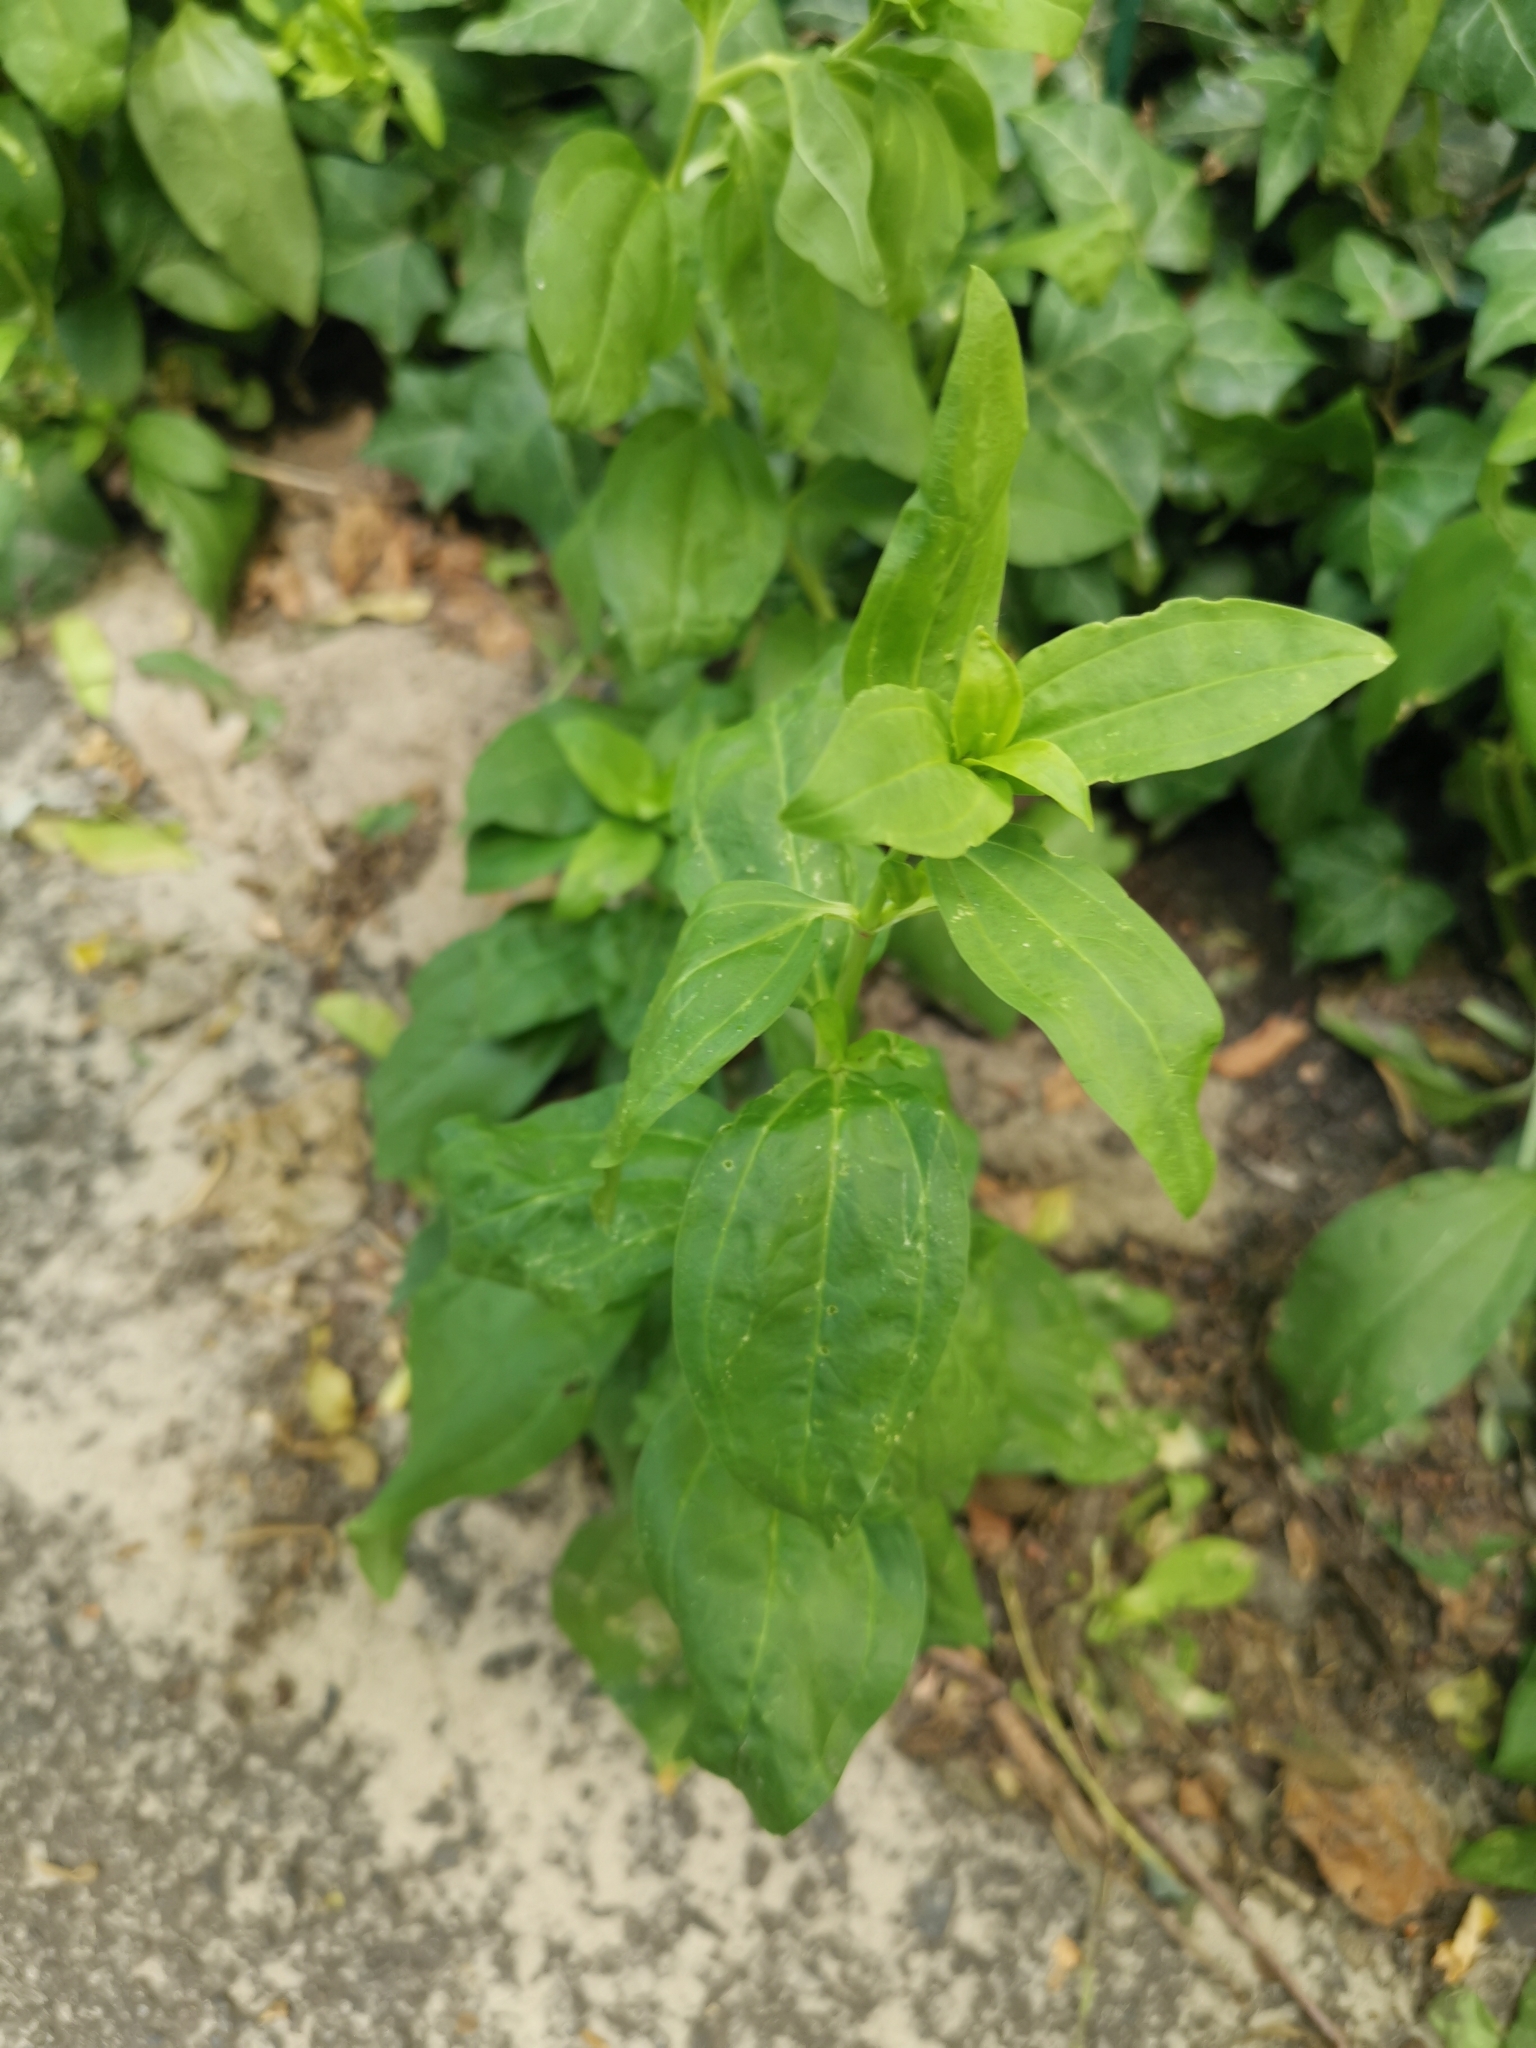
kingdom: Plantae
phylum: Tracheophyta
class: Magnoliopsida
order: Caryophyllales
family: Caryophyllaceae
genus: Saponaria
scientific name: Saponaria officinalis
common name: Soapwort
